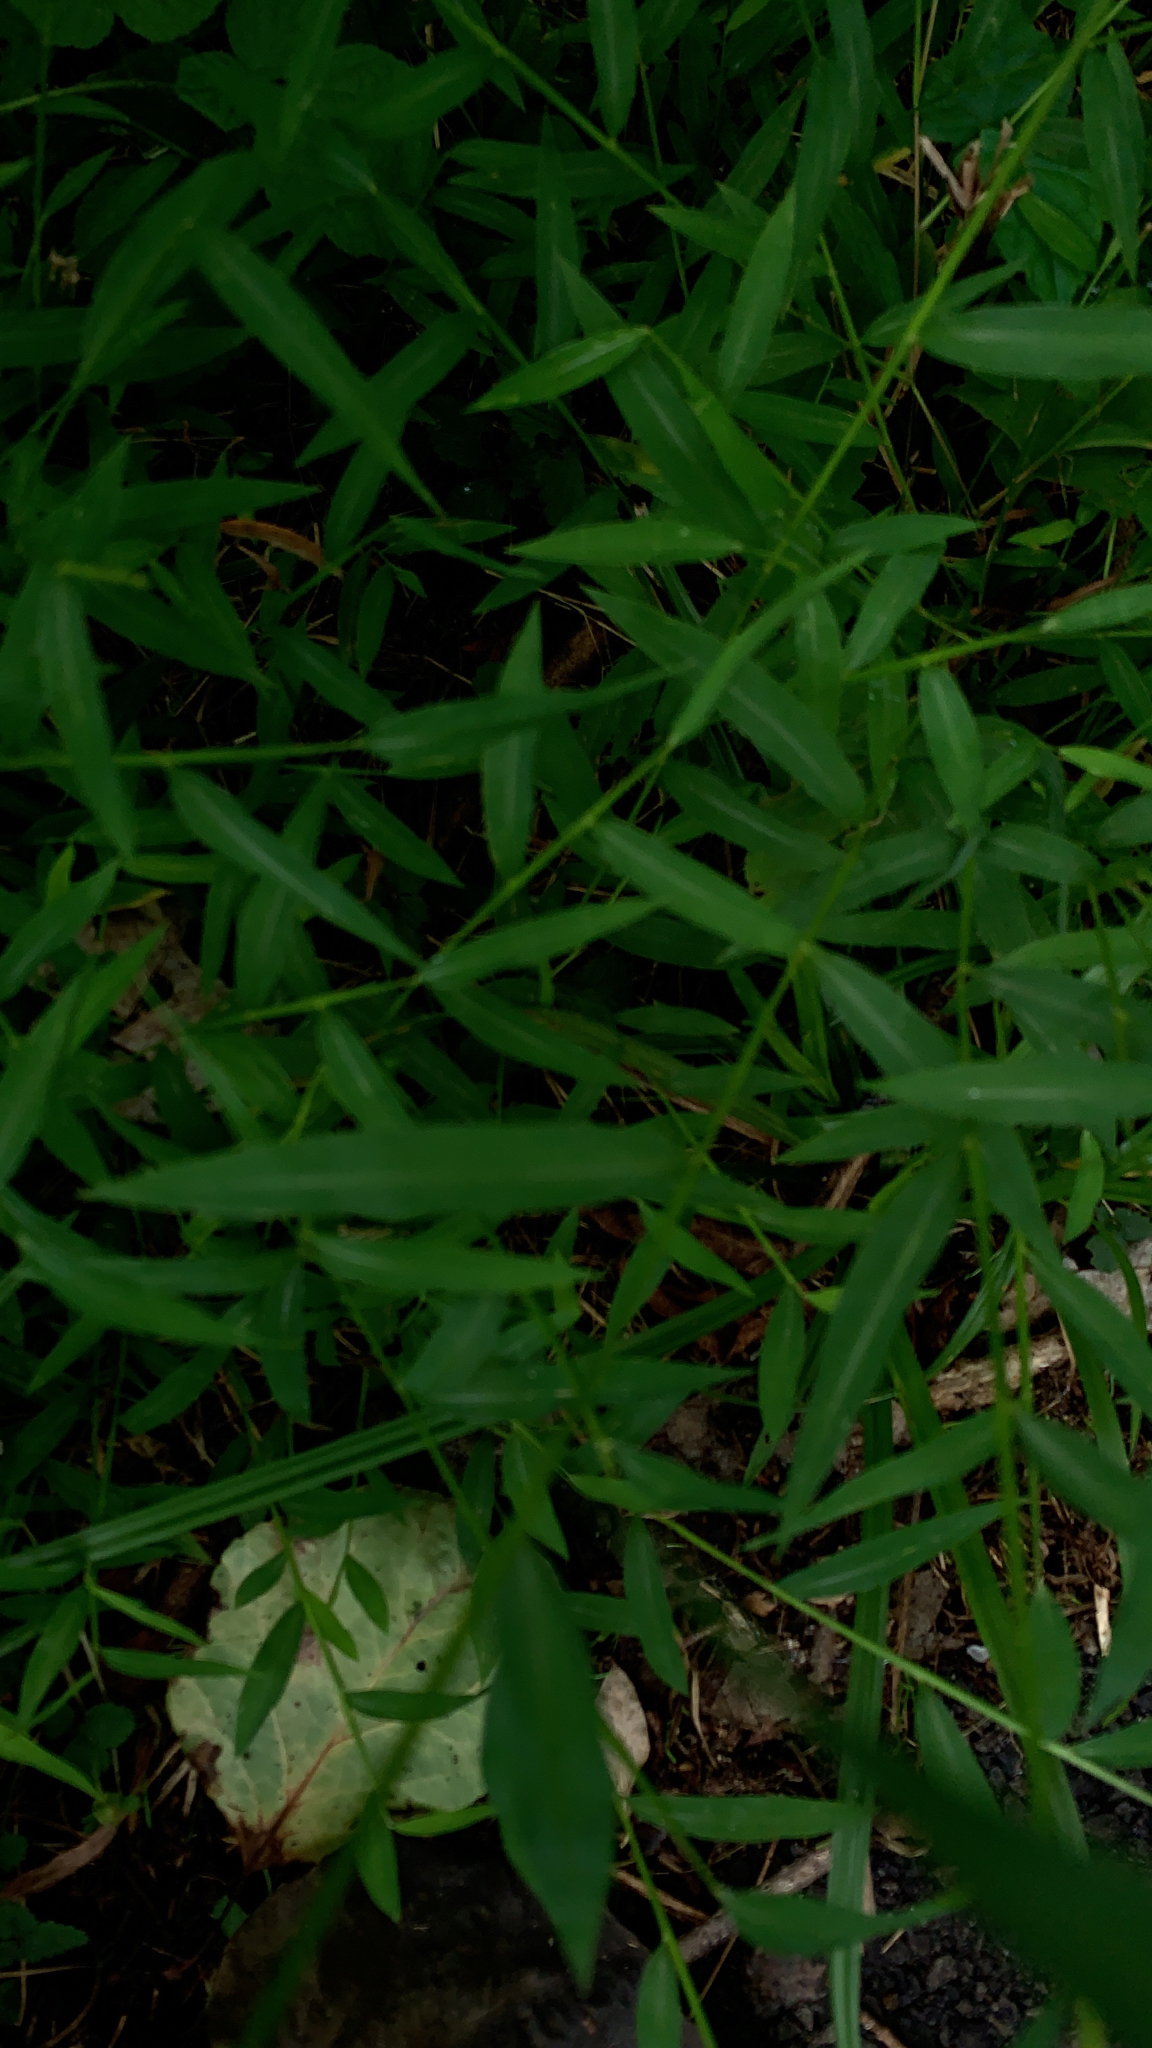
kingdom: Plantae
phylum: Tracheophyta
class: Liliopsida
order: Poales
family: Poaceae
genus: Microstegium
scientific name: Microstegium vimineum
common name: Japanese stiltgrass
